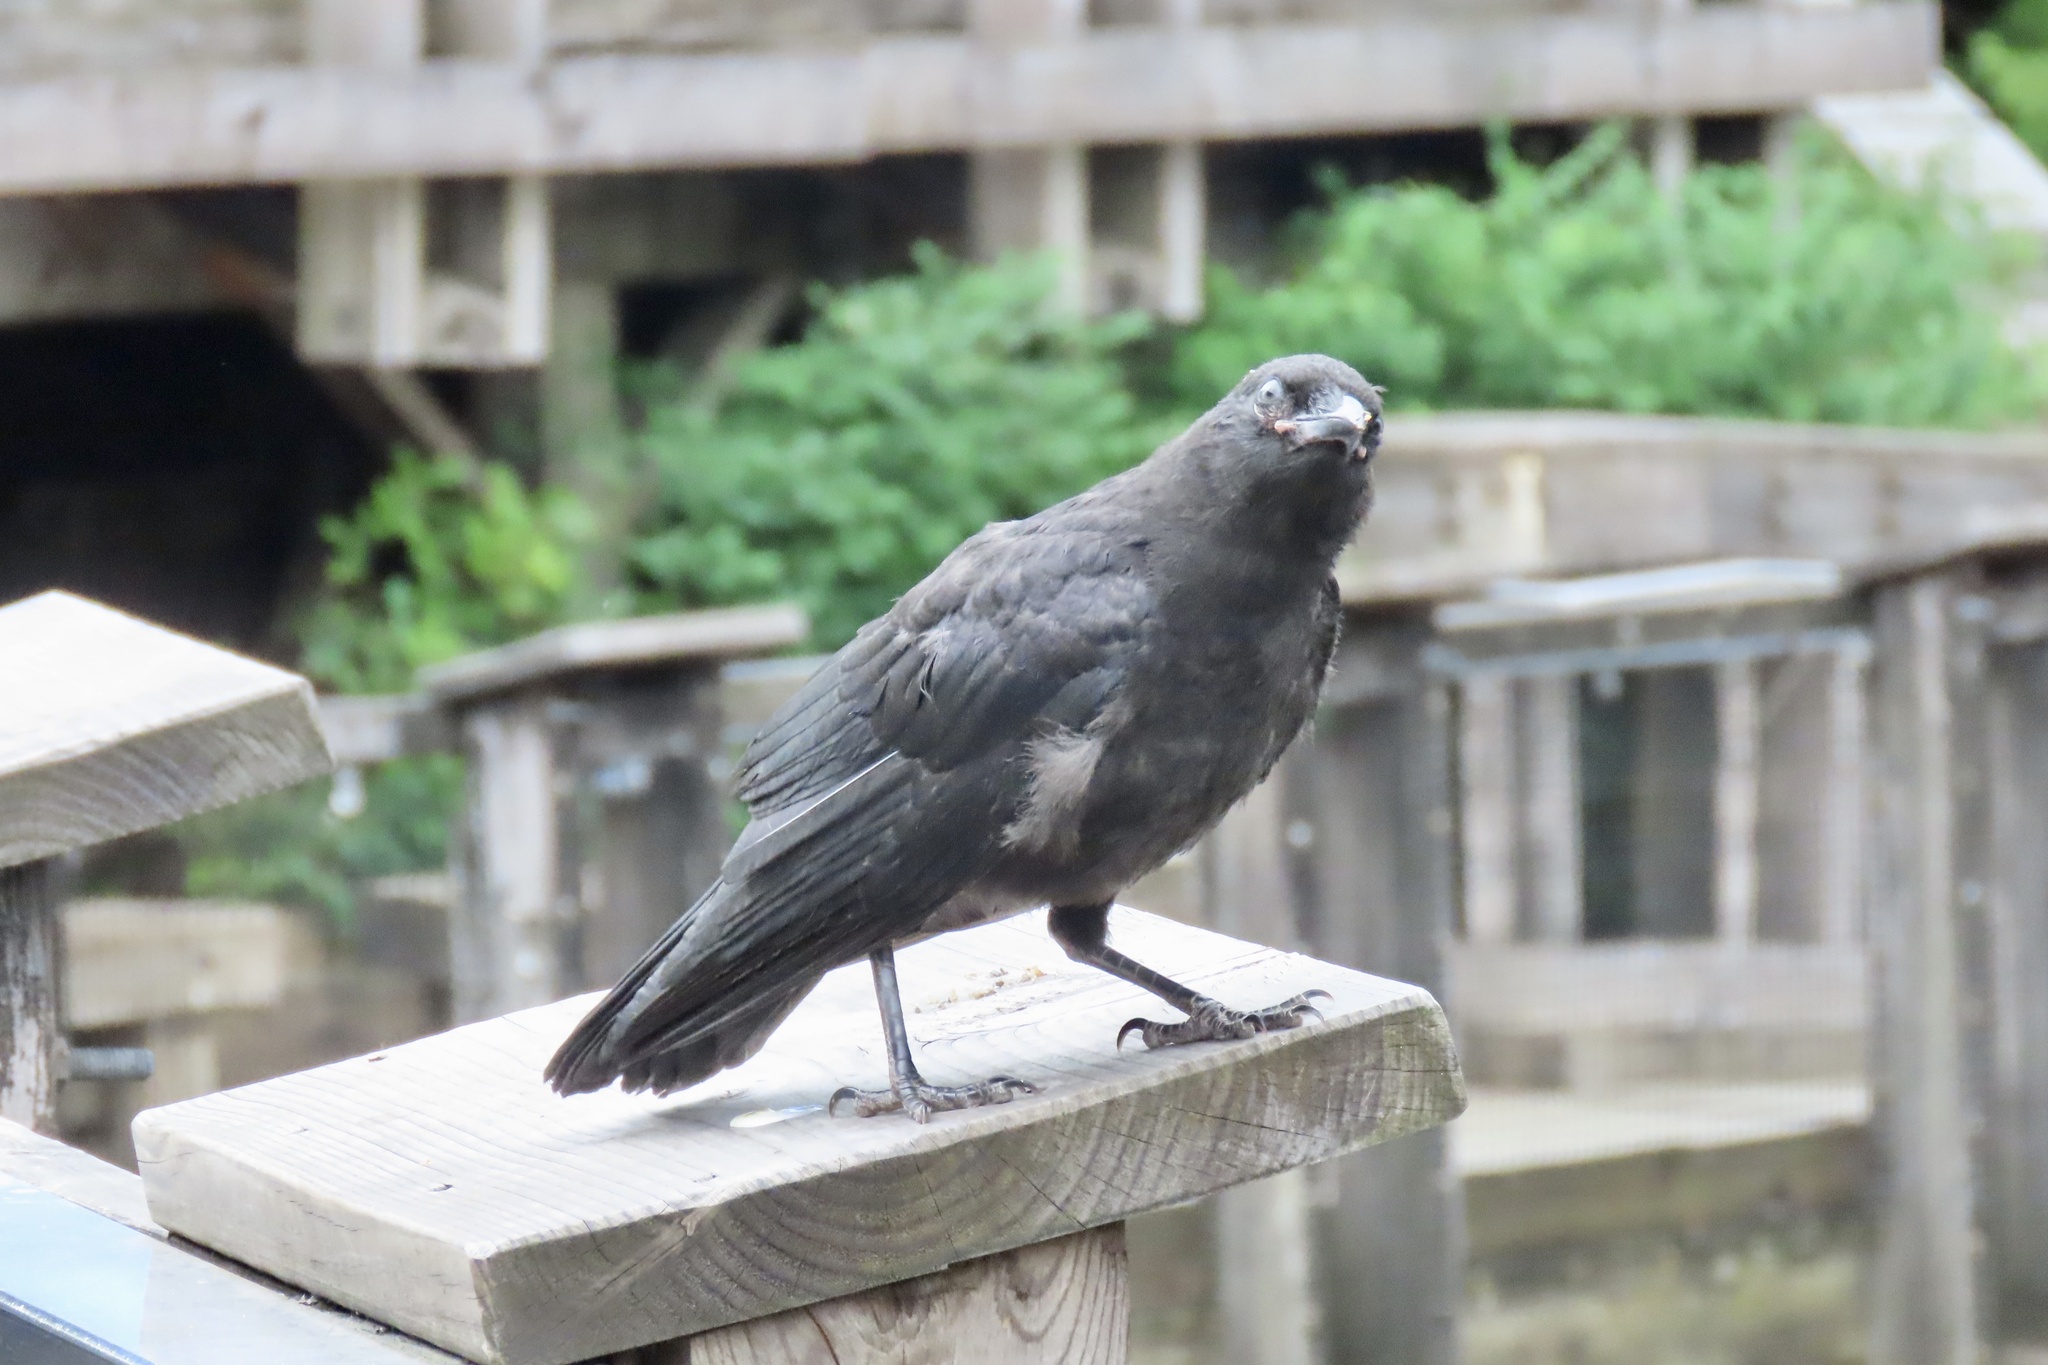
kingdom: Animalia
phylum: Chordata
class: Aves
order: Passeriformes
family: Corvidae
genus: Corvus
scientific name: Corvus brachyrhynchos
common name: American crow
